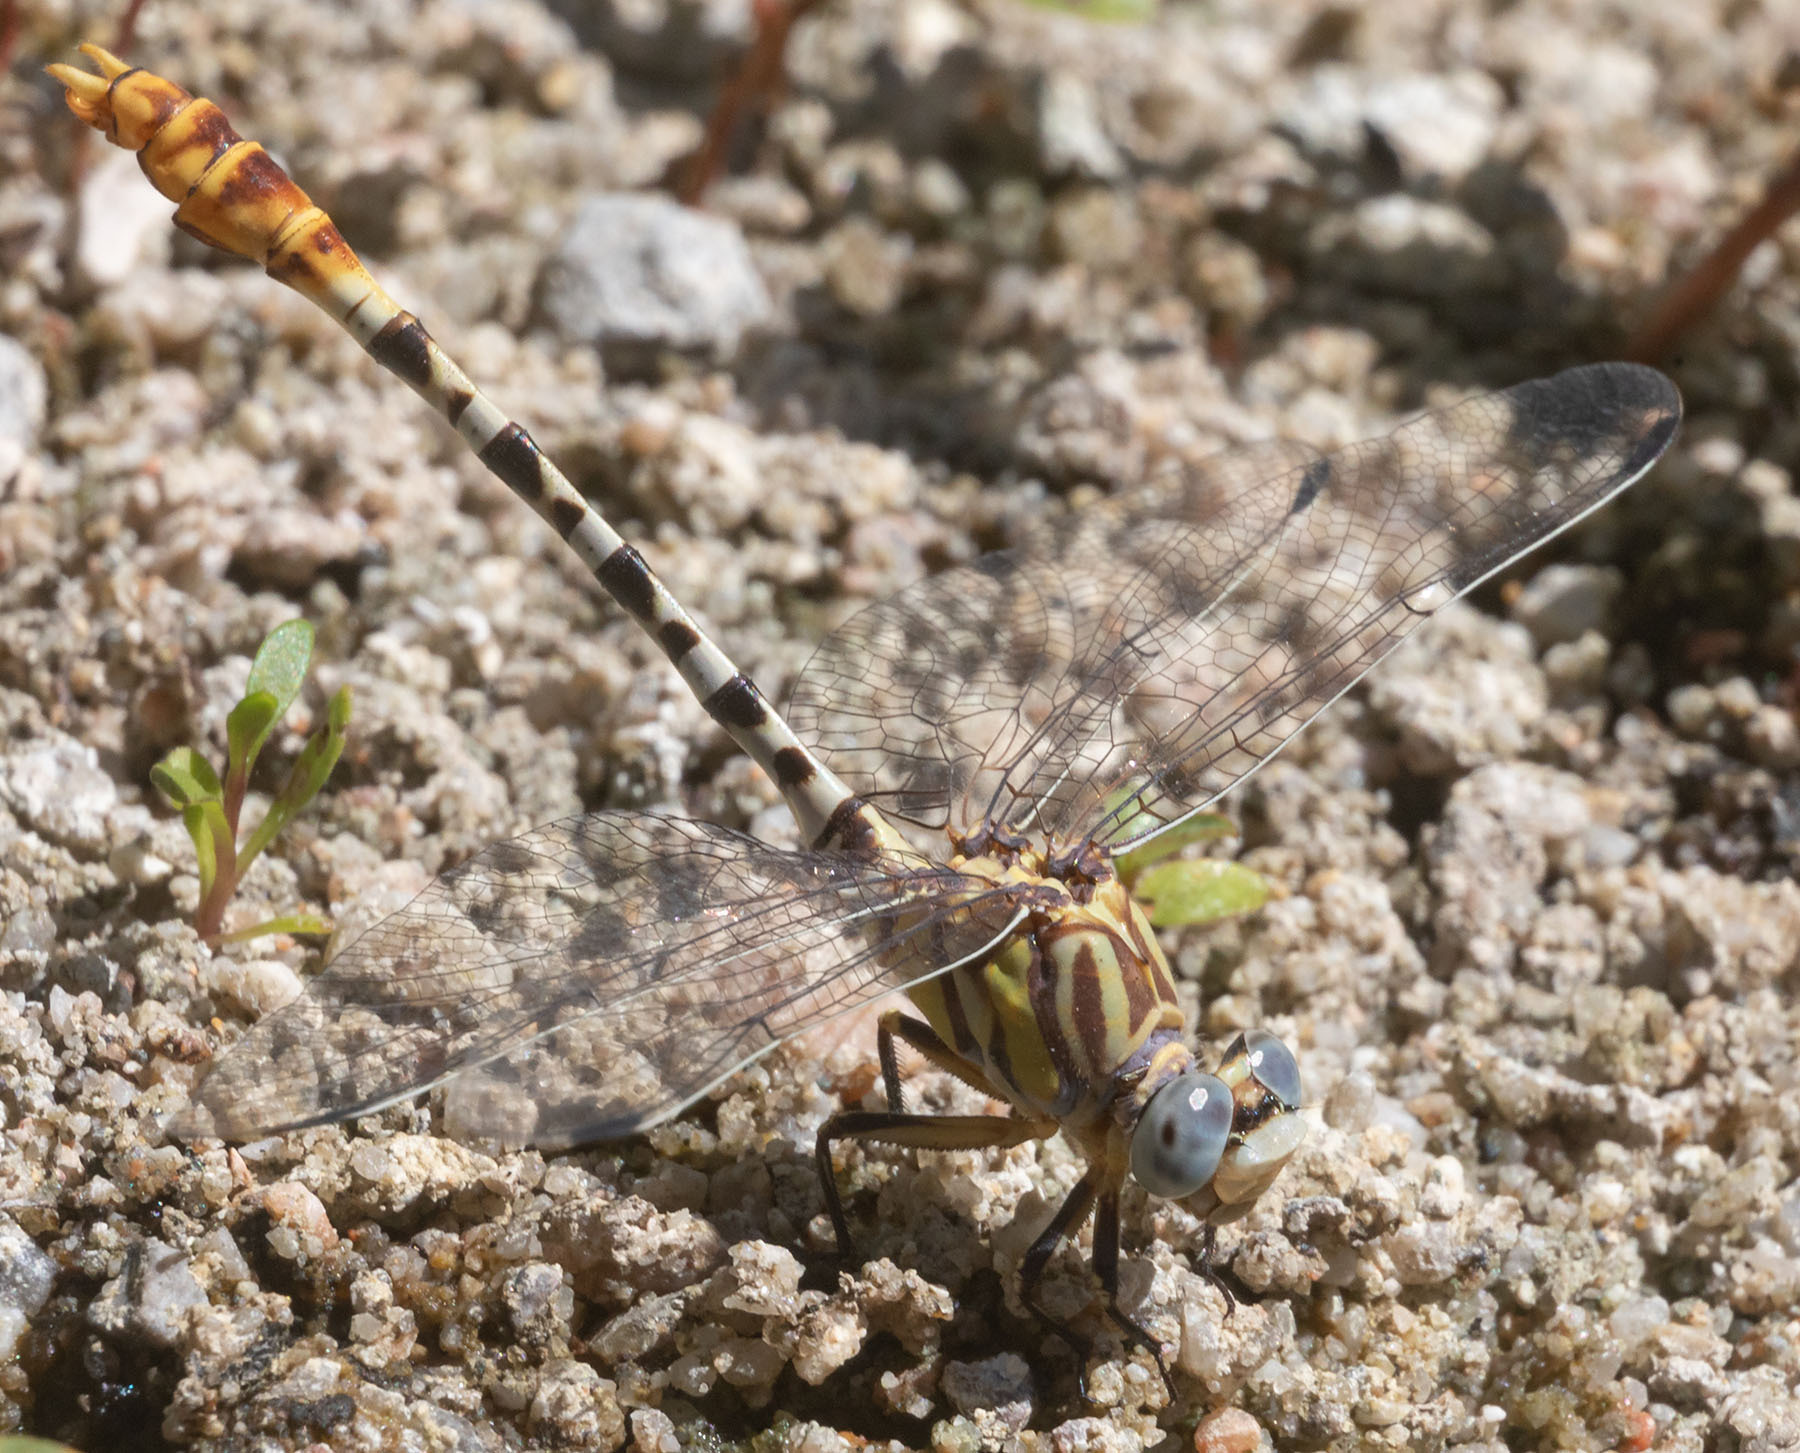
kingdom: Animalia
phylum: Arthropoda
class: Insecta
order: Odonata
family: Gomphidae
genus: Erpetogomphus
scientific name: Erpetogomphus compositus
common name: White-belted ringtail
